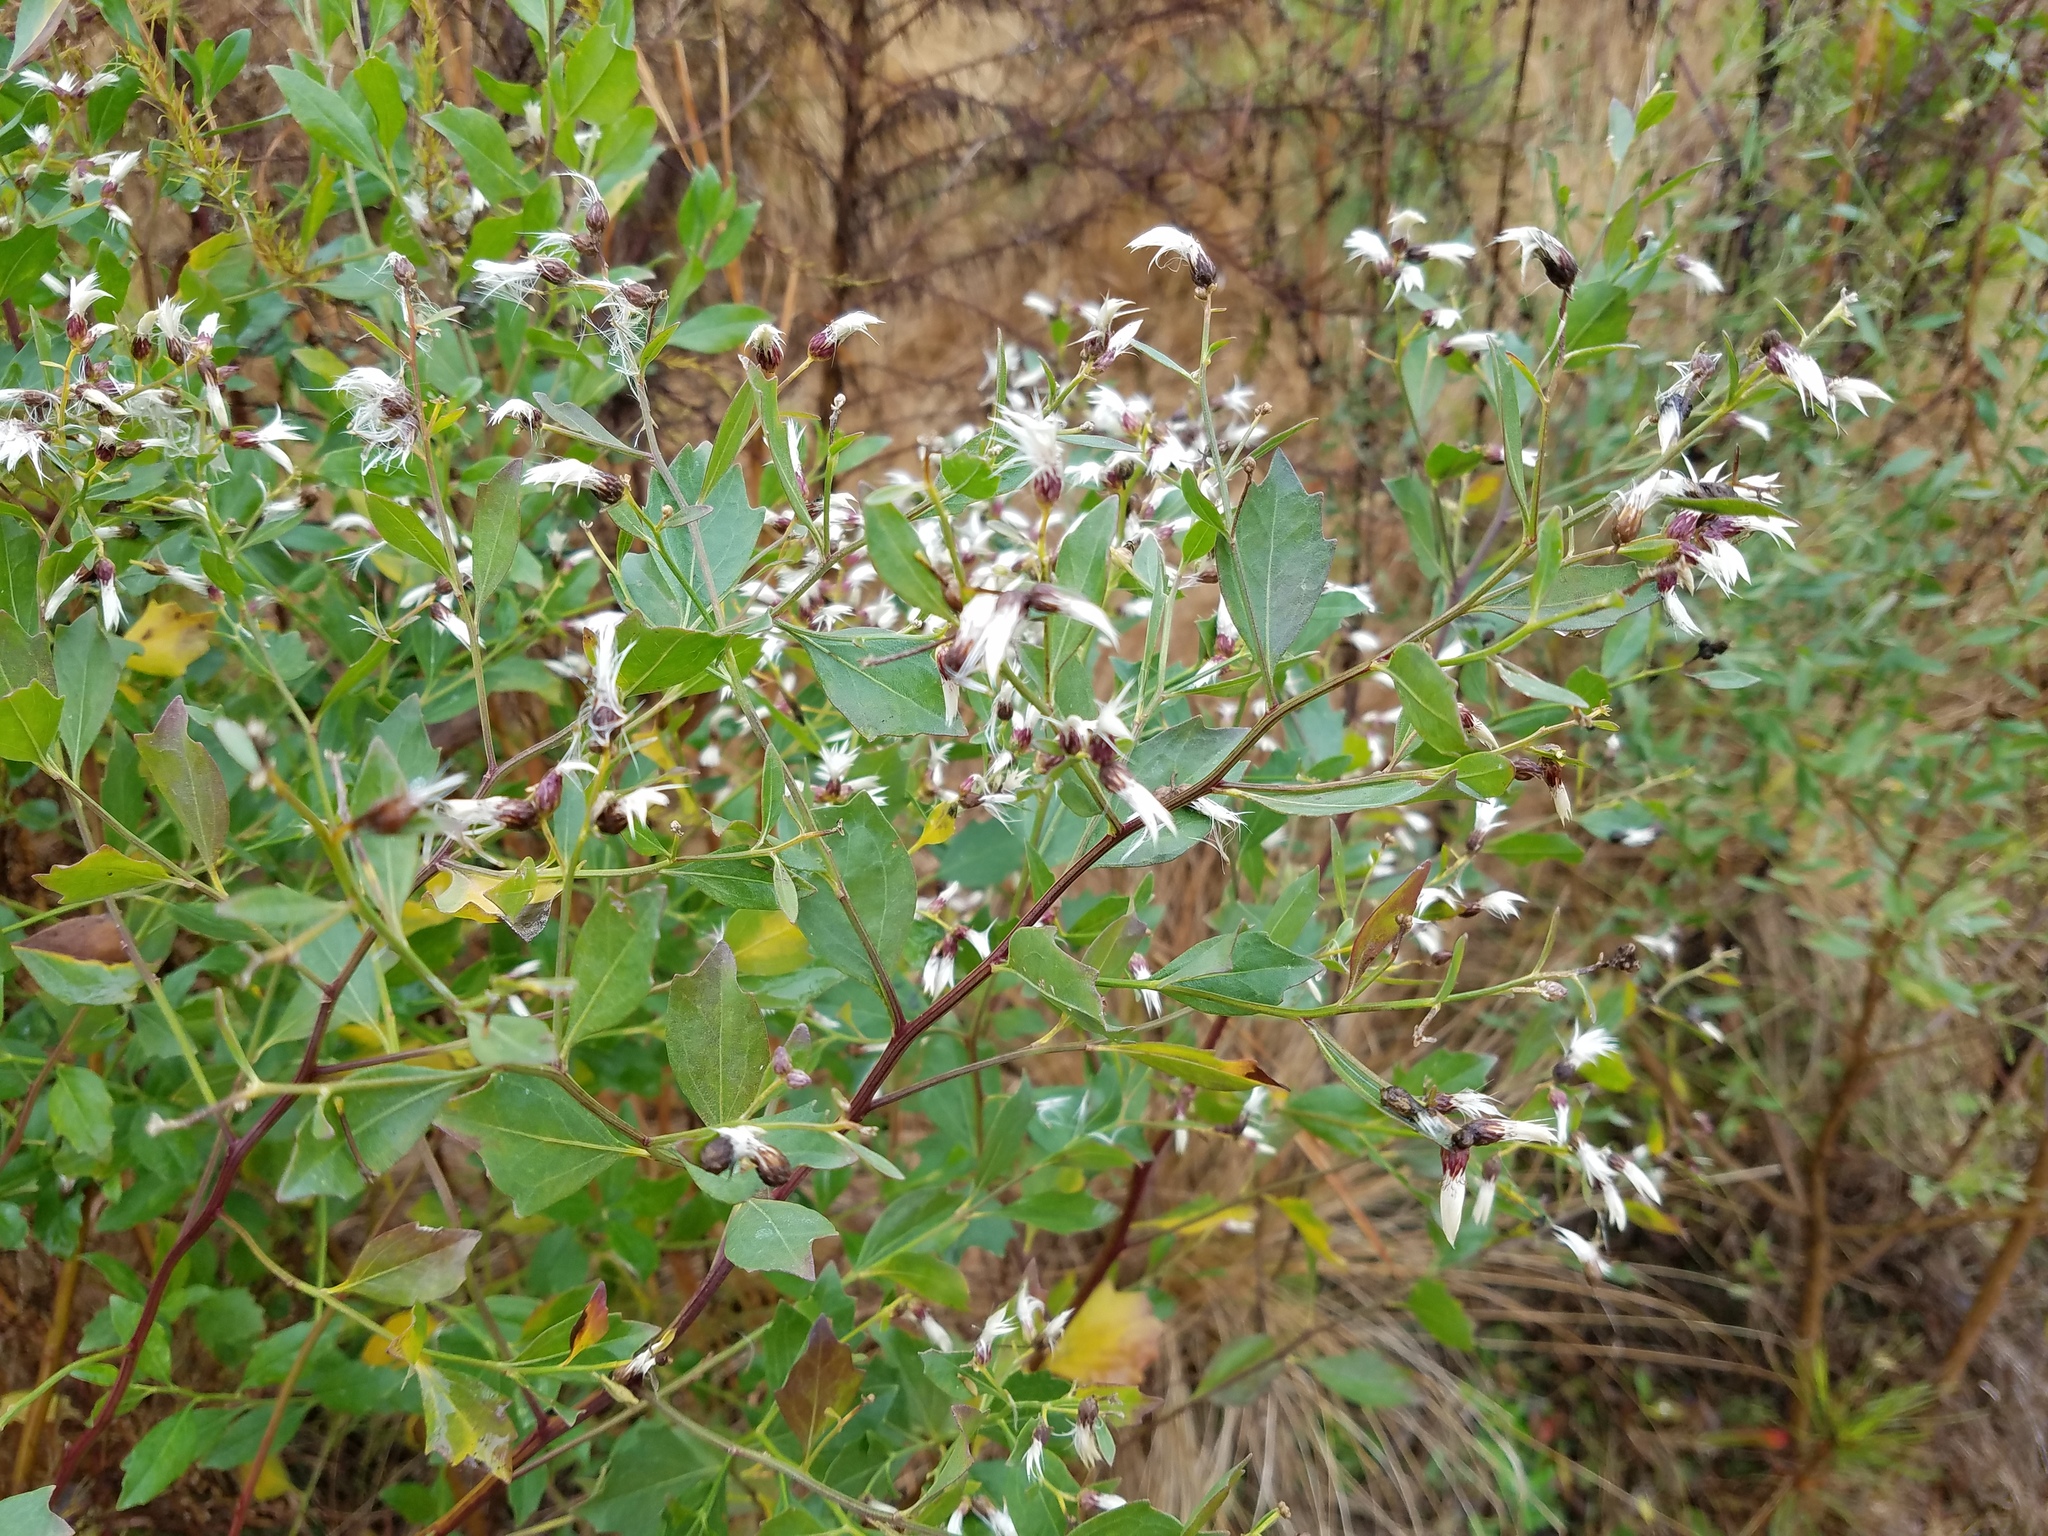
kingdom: Plantae
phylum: Tracheophyta
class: Magnoliopsida
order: Asterales
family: Asteraceae
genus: Baccharis
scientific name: Baccharis halimifolia
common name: Eastern baccharis
